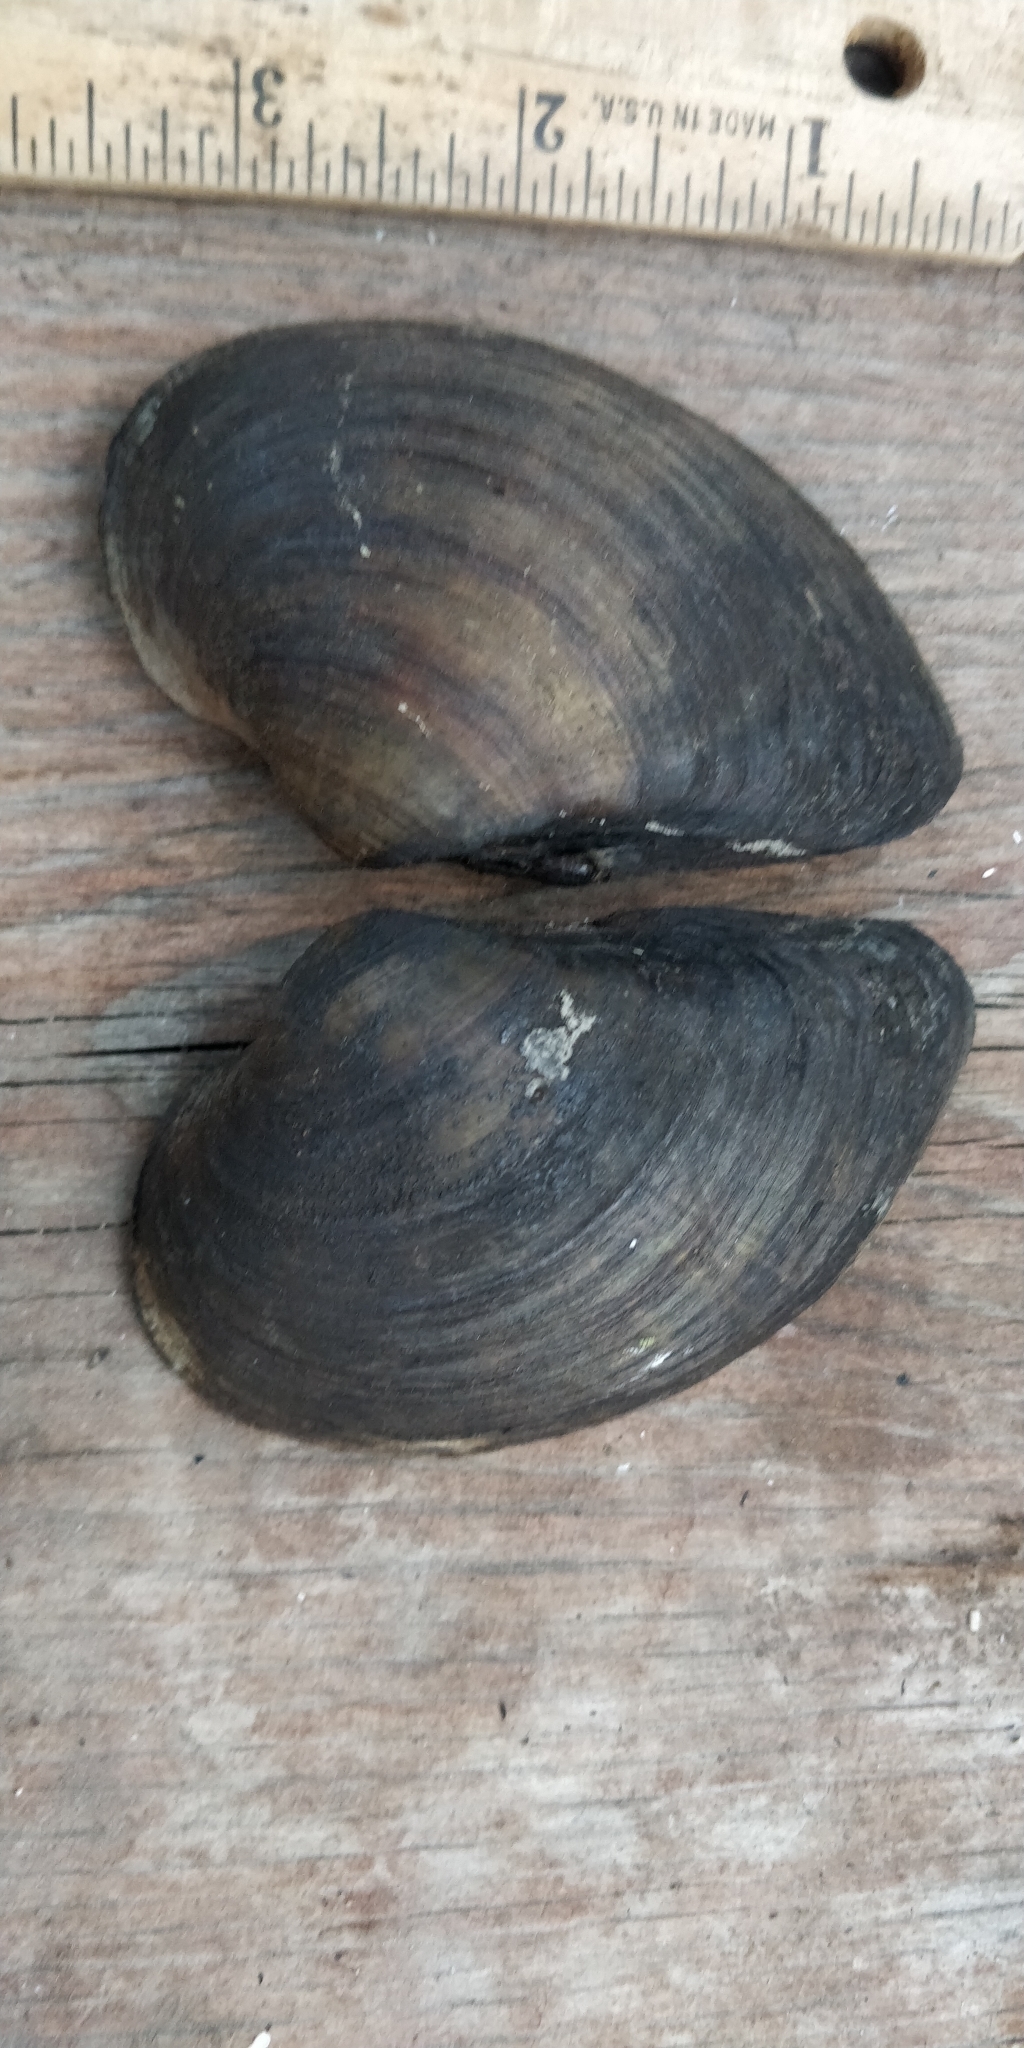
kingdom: Animalia
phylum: Mollusca
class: Bivalvia
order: Unionida
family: Unionidae
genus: Truncilla
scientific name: Truncilla donaciformis
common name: Fawnsfoot
